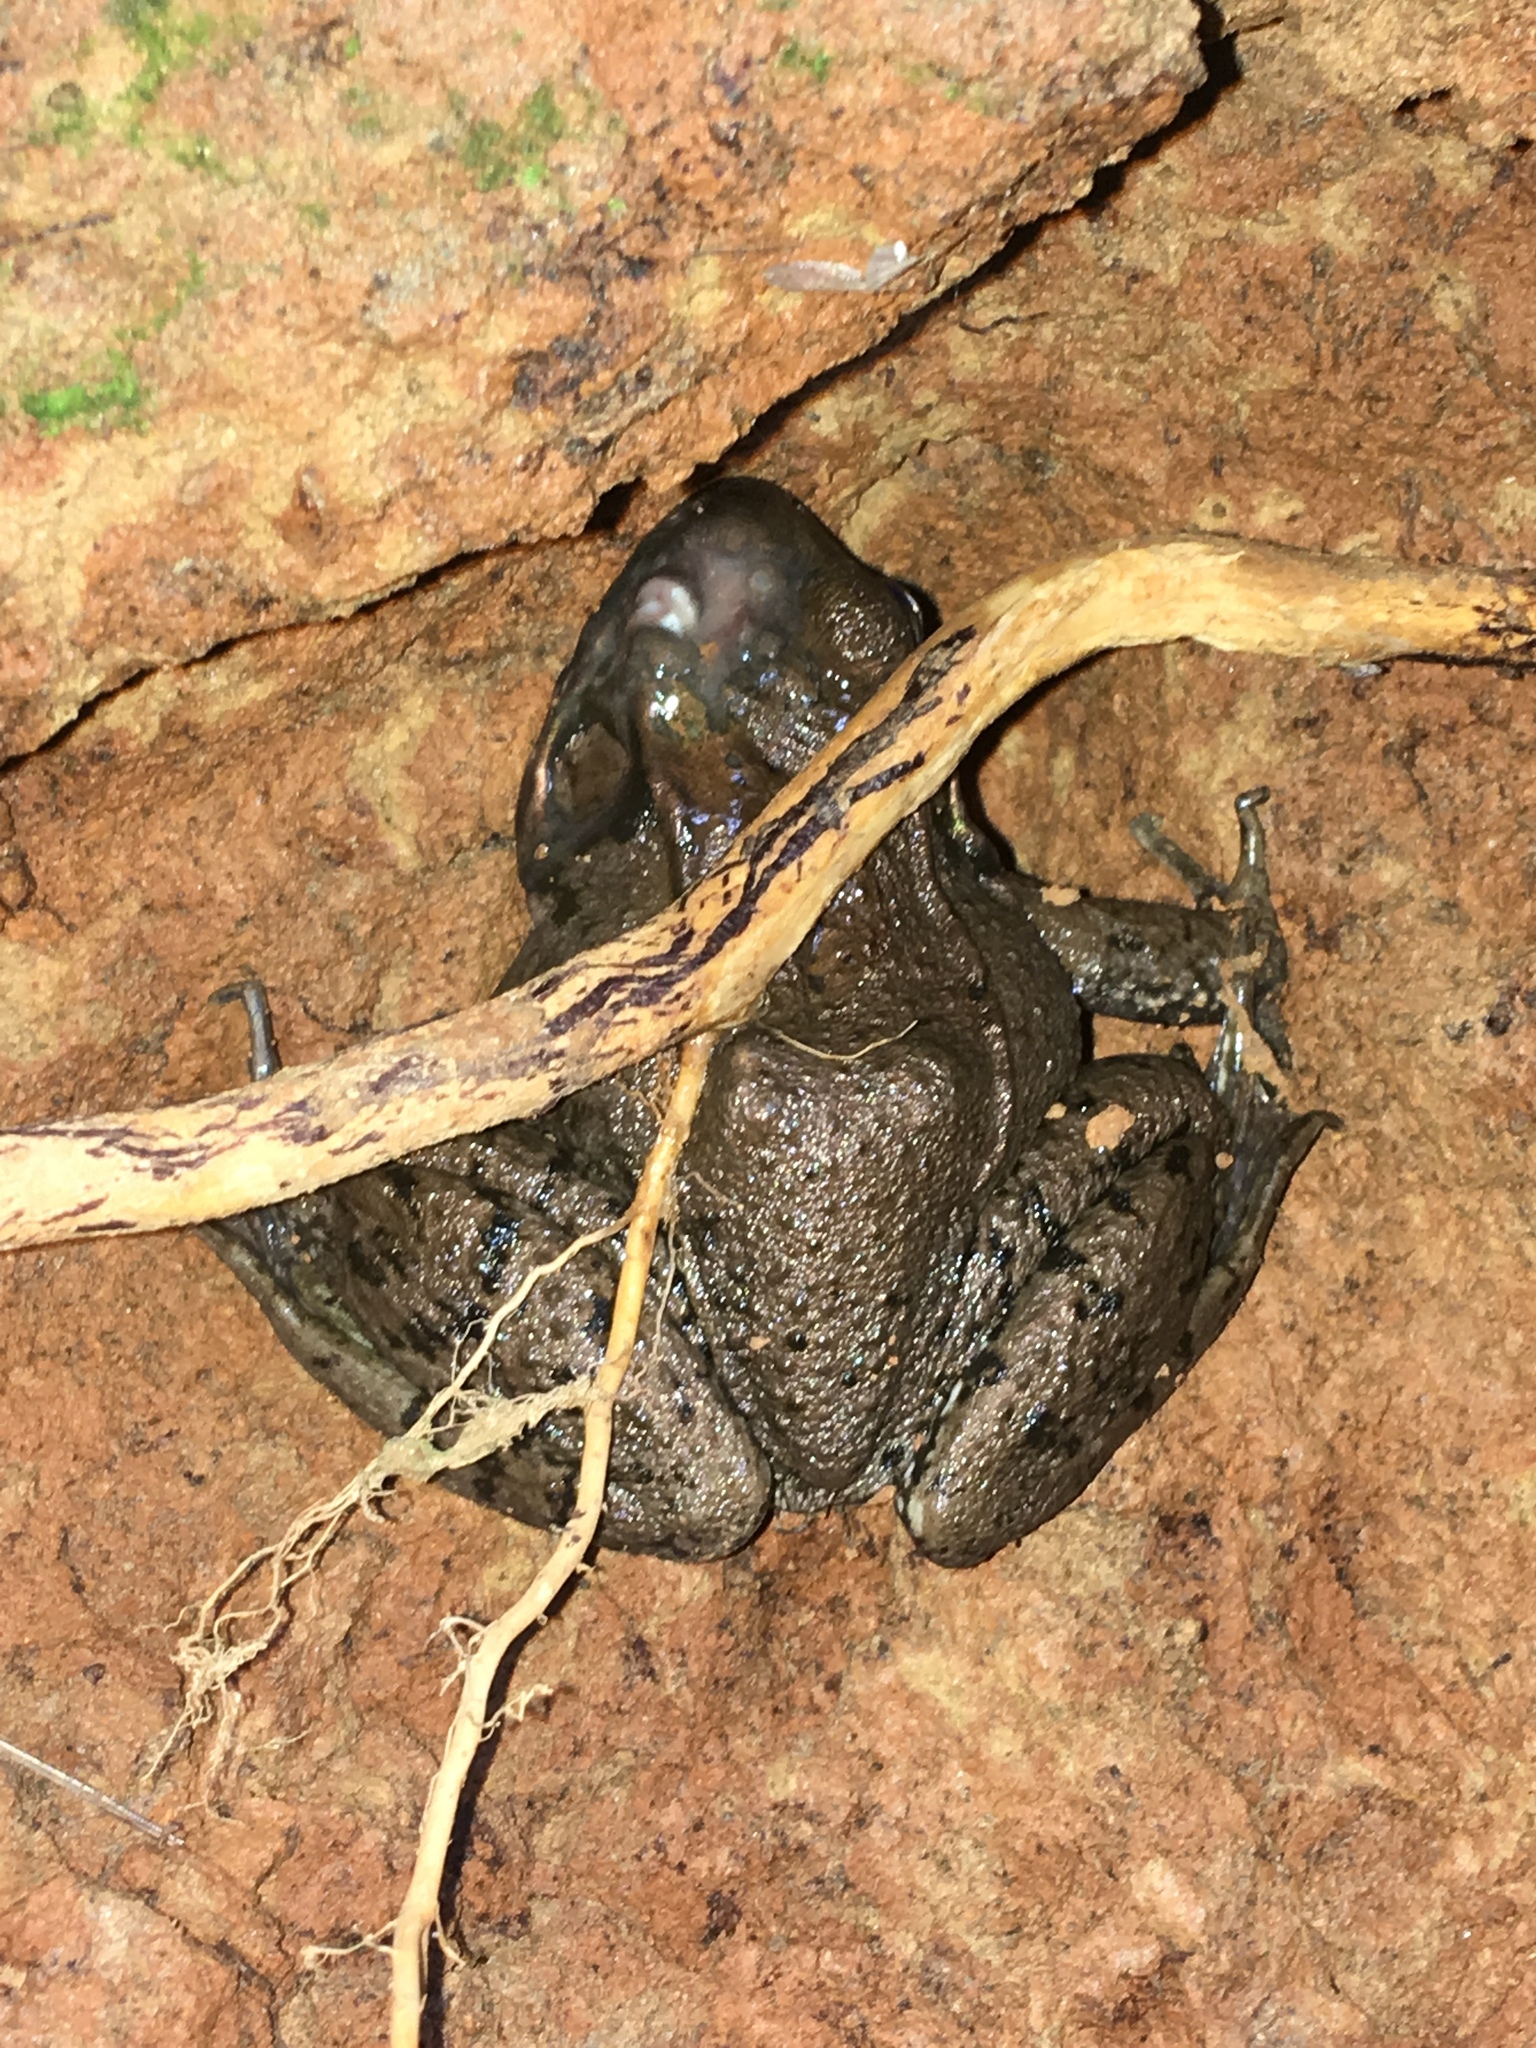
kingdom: Animalia
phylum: Chordata
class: Amphibia
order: Anura
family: Ranidae
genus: Lithobates
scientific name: Lithobates clamitans
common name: Green frog
